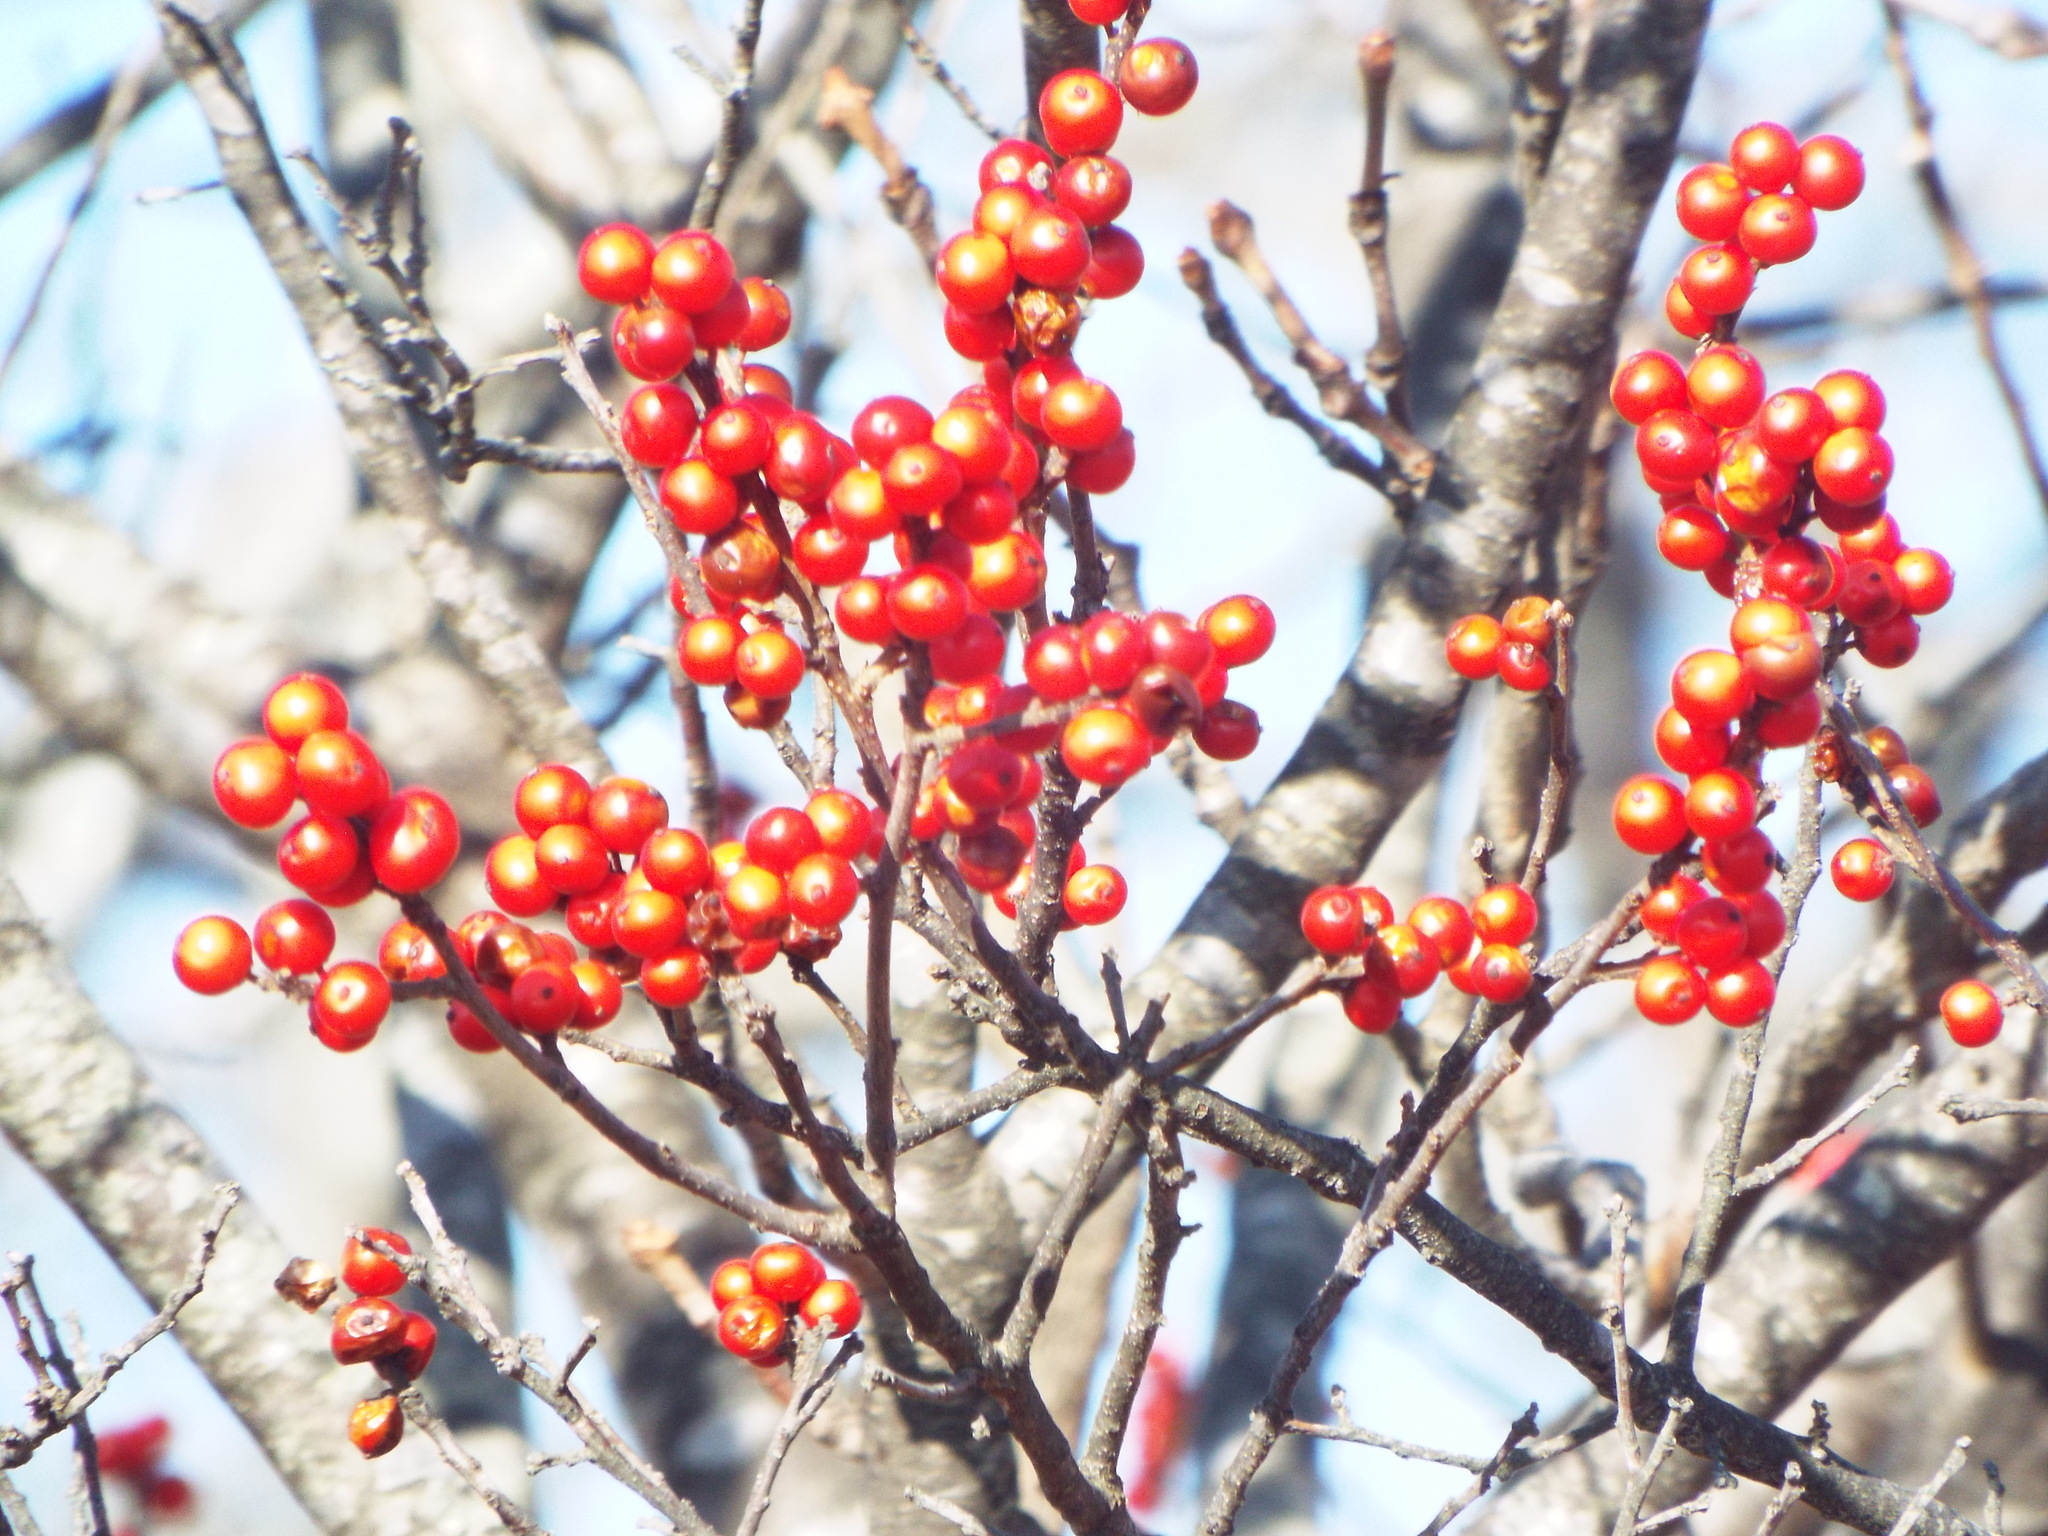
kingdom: Plantae
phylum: Tracheophyta
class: Magnoliopsida
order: Aquifoliales
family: Aquifoliaceae
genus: Ilex
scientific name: Ilex verticillata
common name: Virginia winterberry
